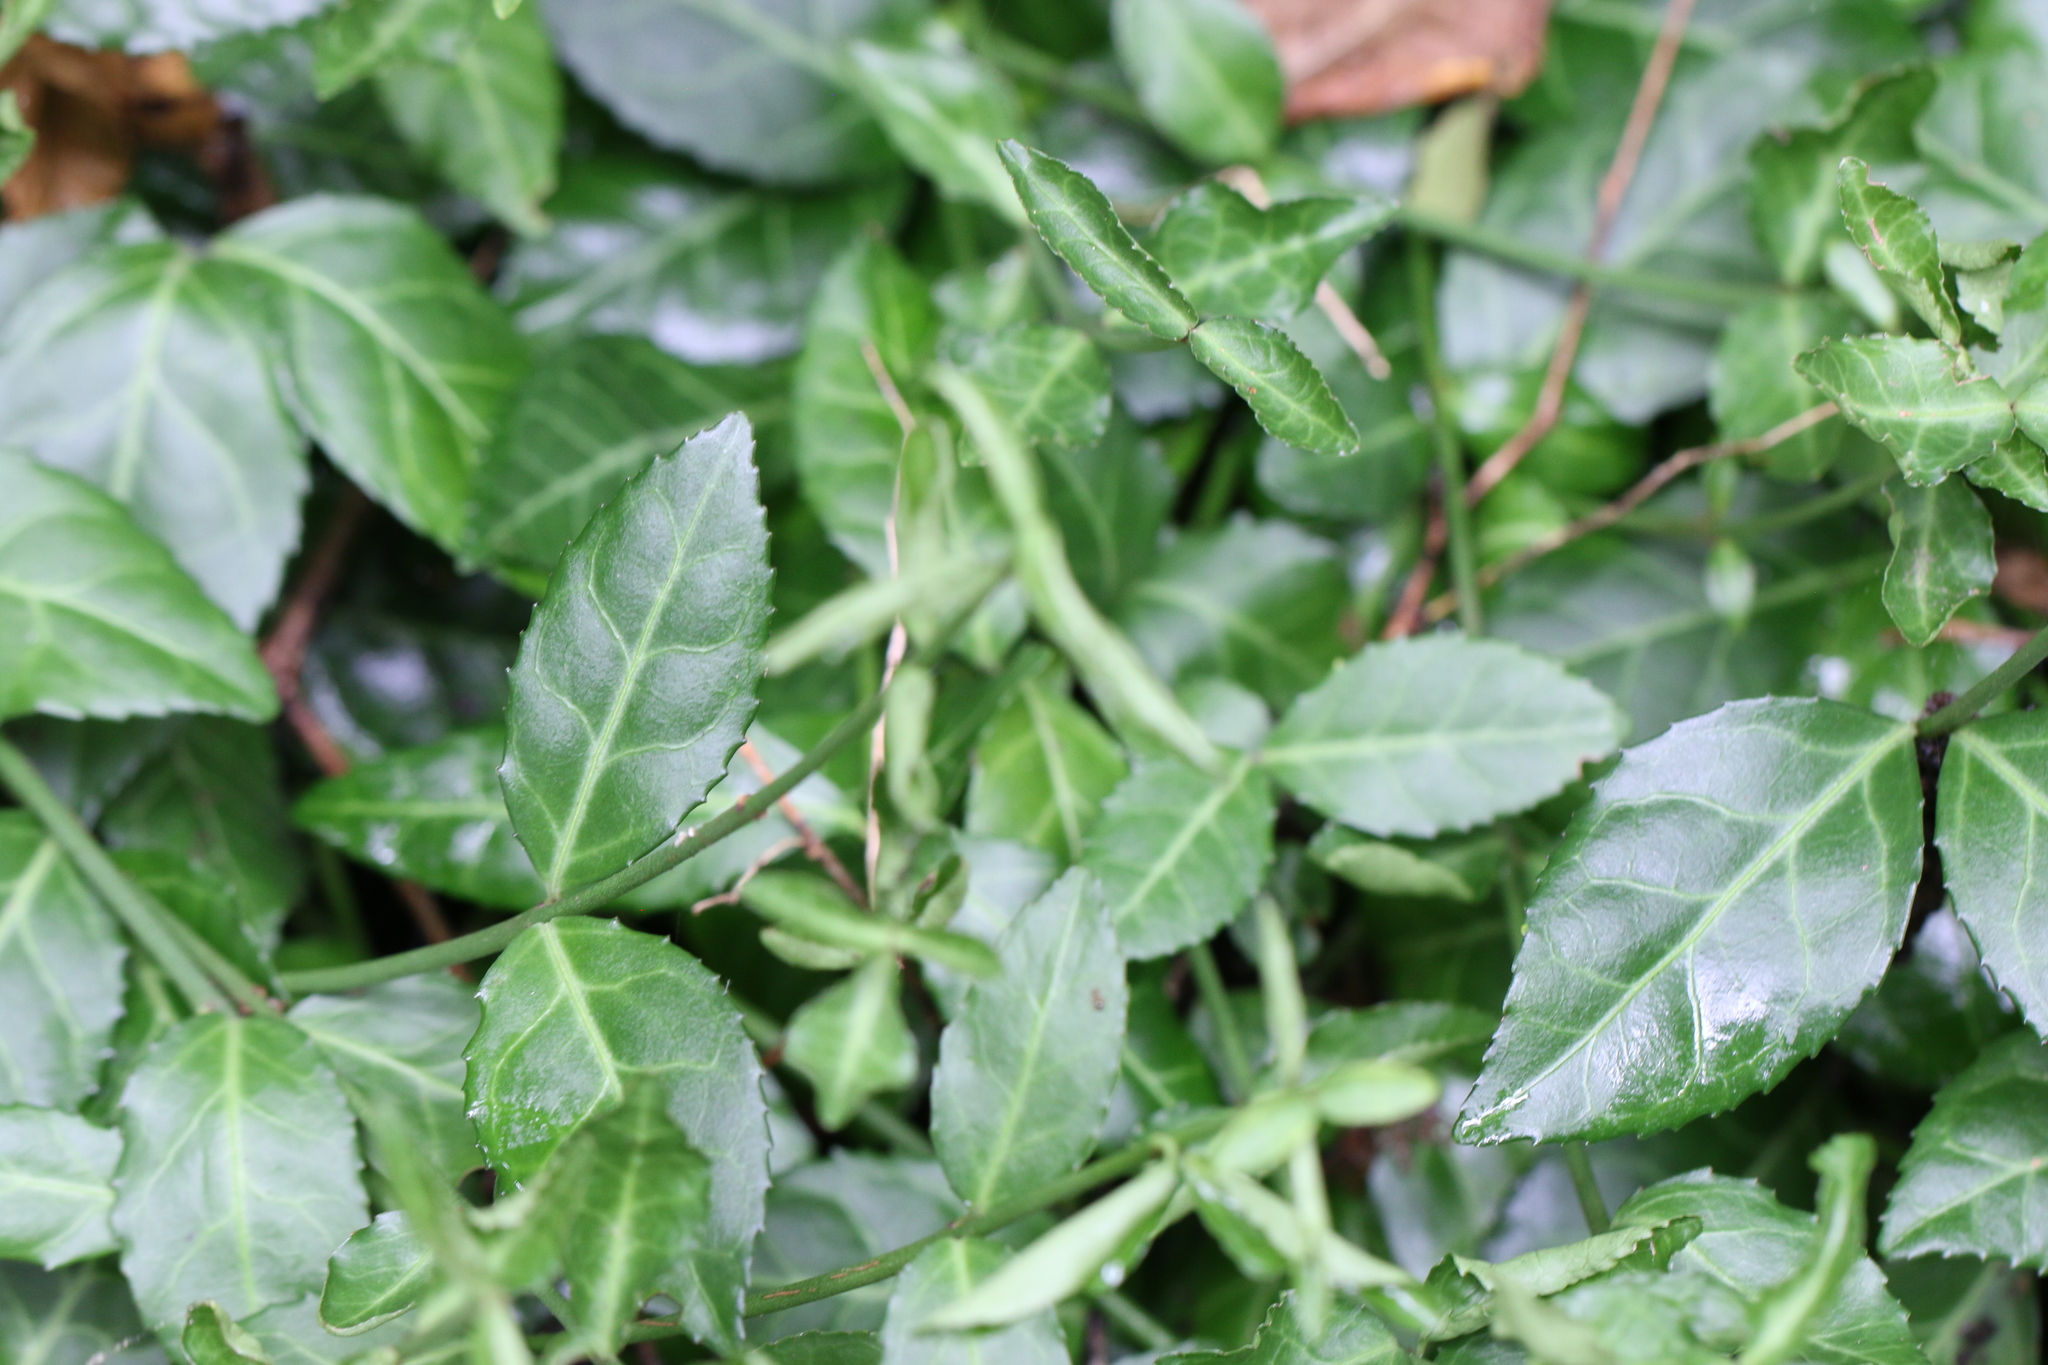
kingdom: Plantae
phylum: Tracheophyta
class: Magnoliopsida
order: Celastrales
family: Celastraceae
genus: Euonymus
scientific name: Euonymus fortunei
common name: Climbing euonymus
